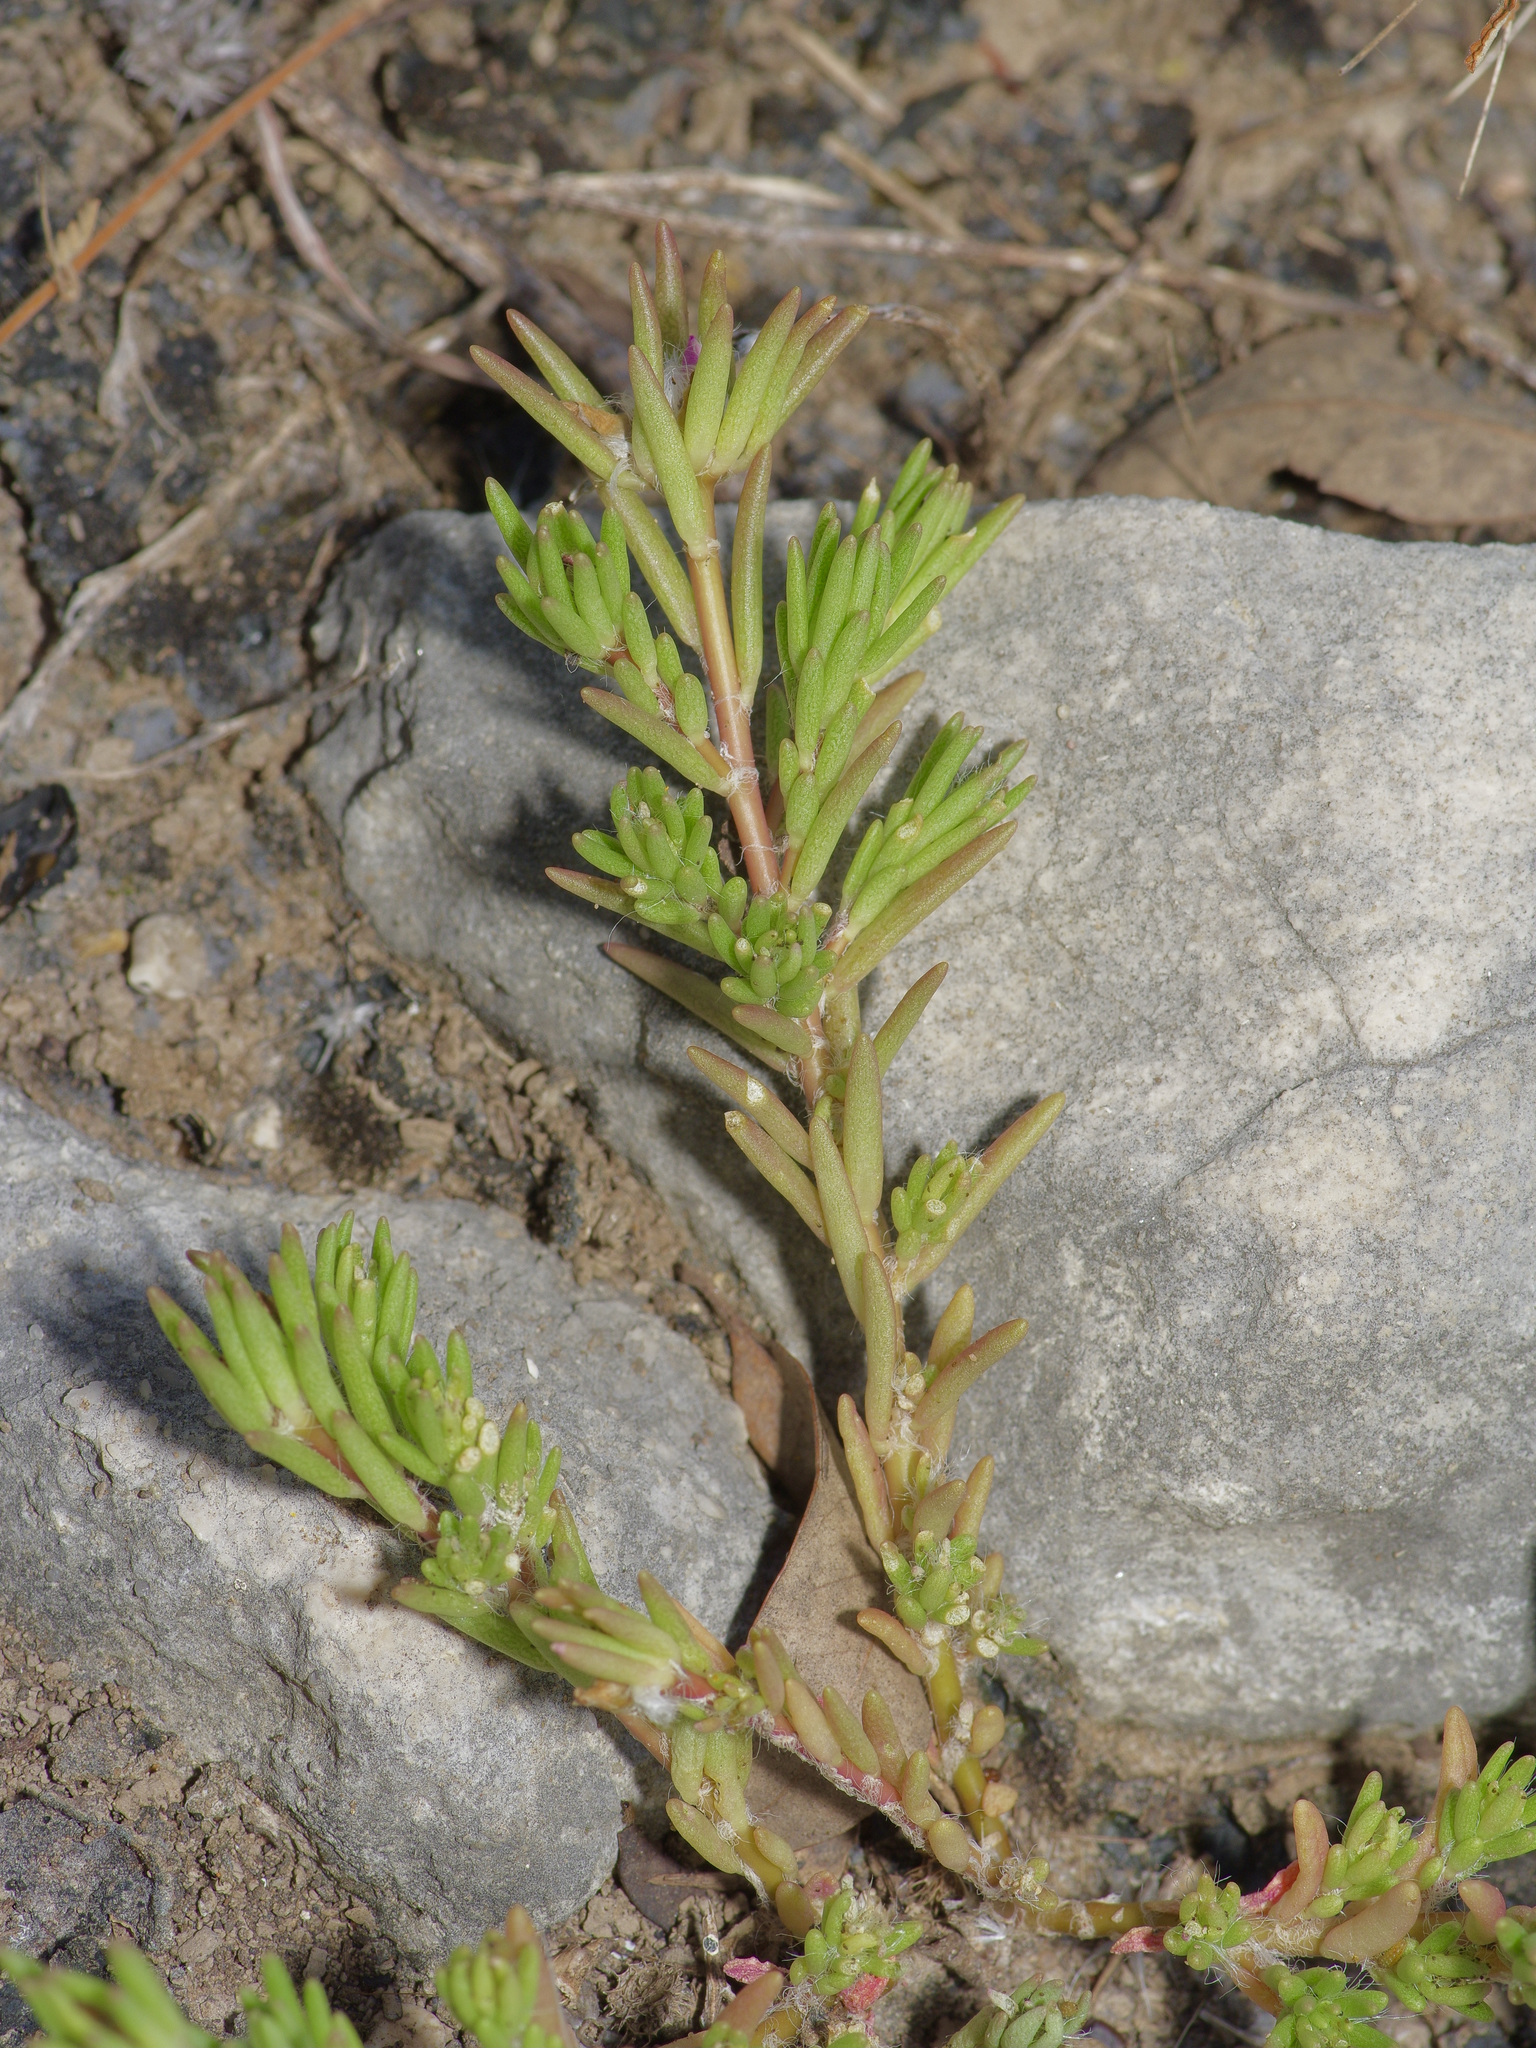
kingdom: Plantae
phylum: Tracheophyta
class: Magnoliopsida
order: Caryophyllales
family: Portulacaceae
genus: Portulaca
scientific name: Portulaca pilosa
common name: Kiss me quick
